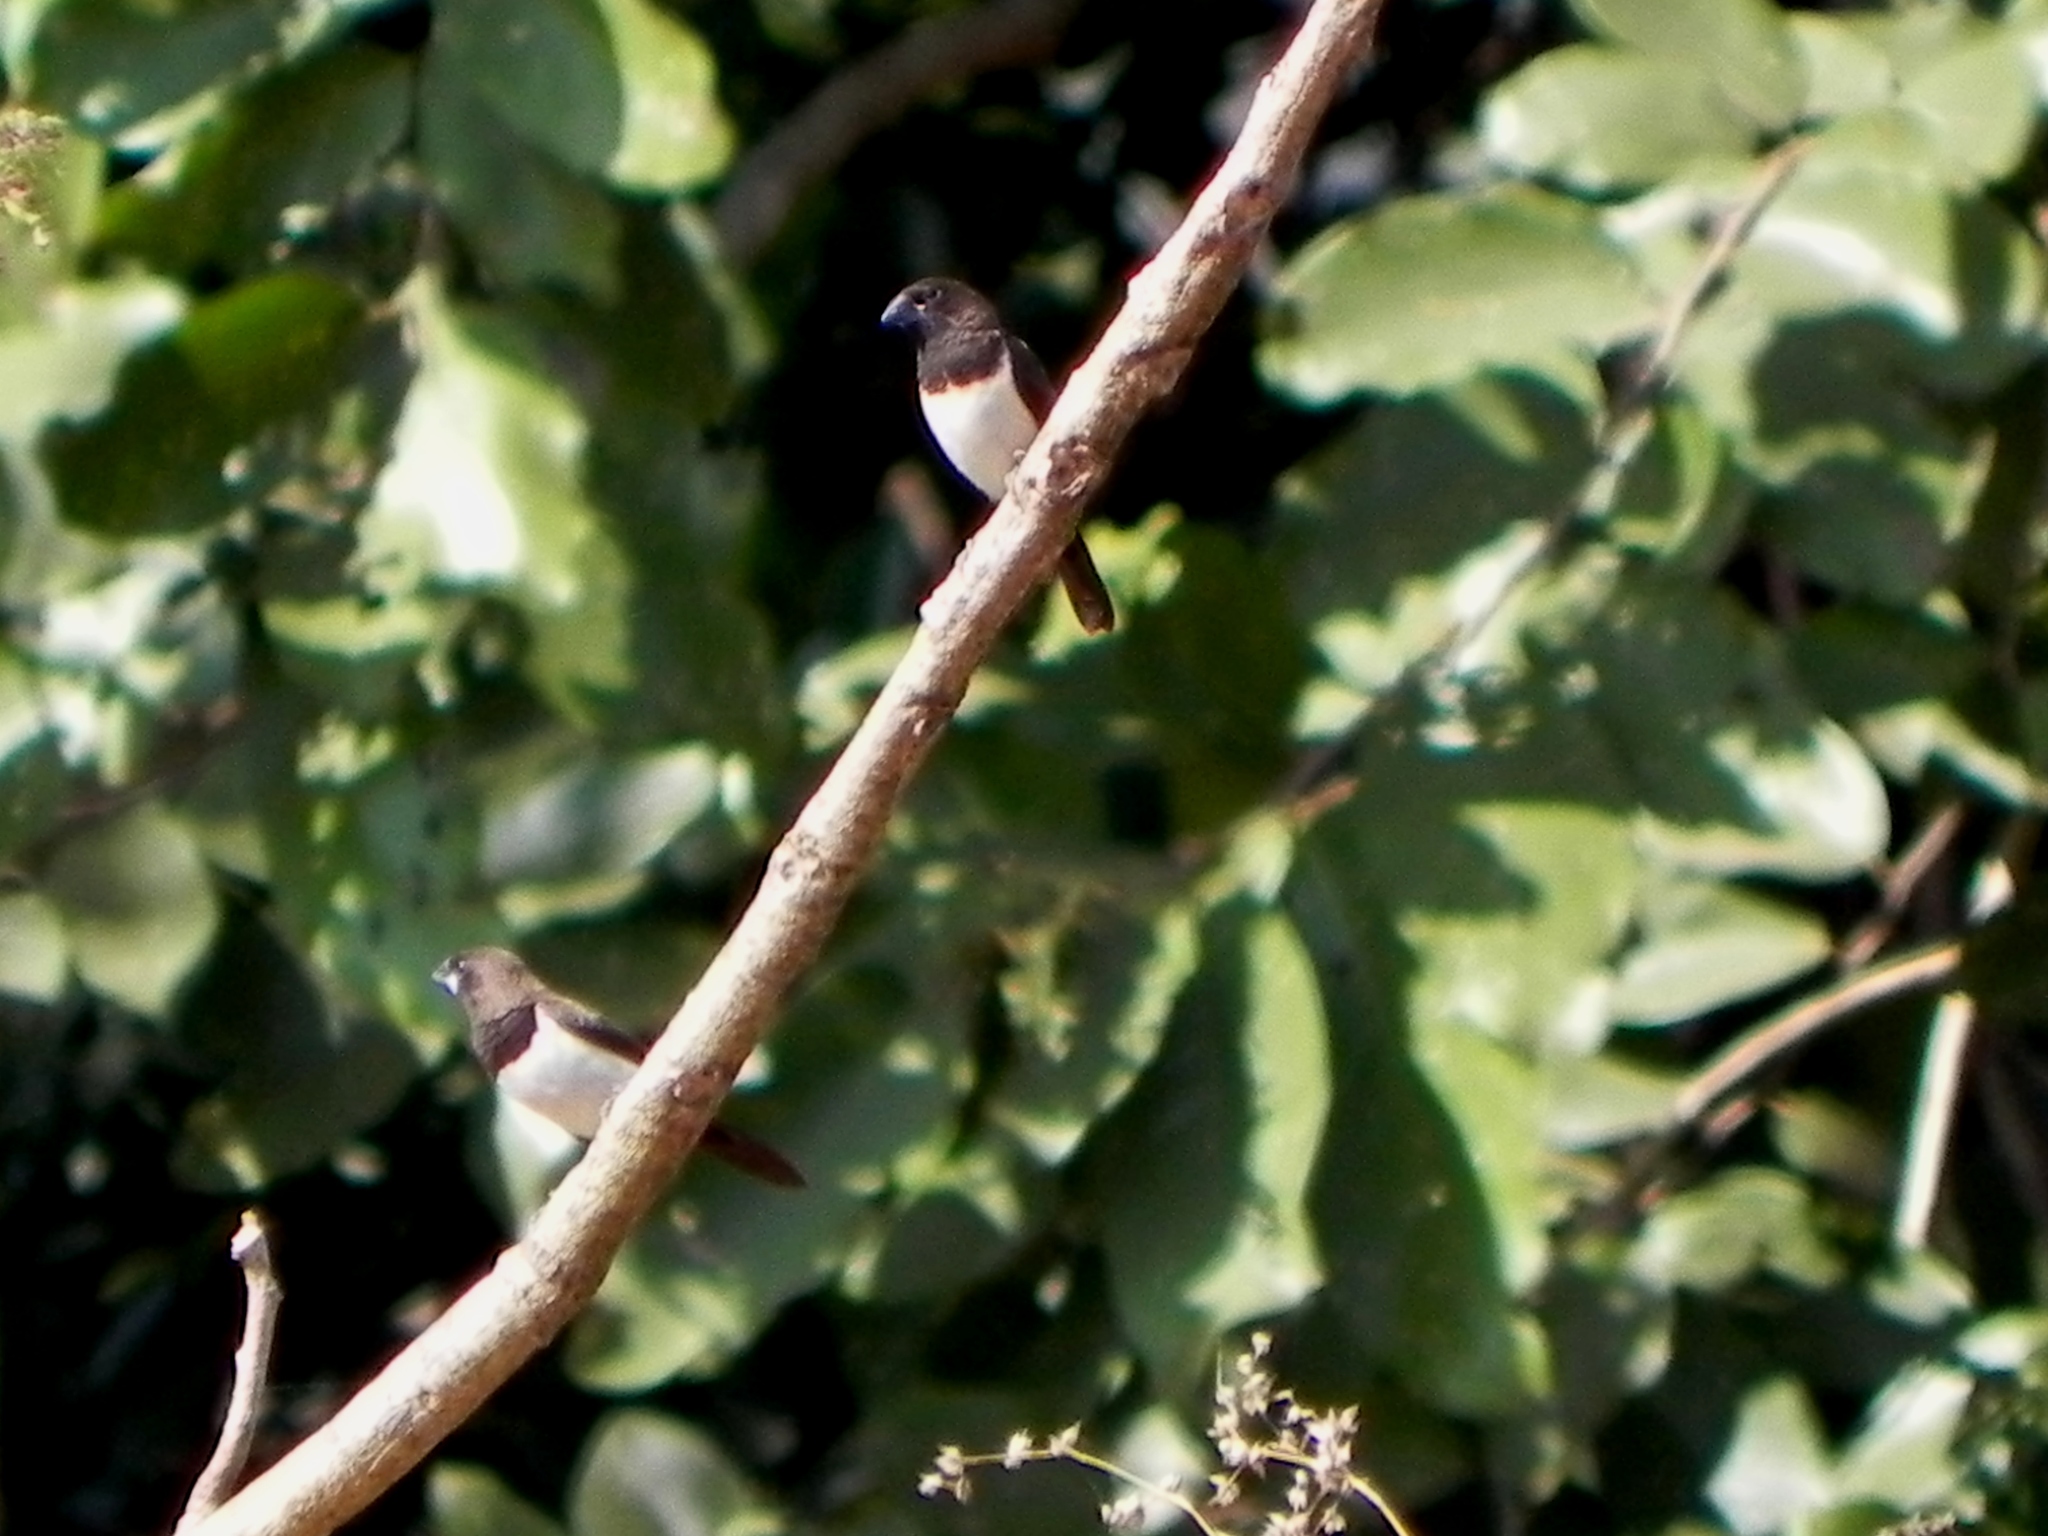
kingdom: Animalia
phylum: Chordata
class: Aves
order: Passeriformes
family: Estrildidae
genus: Lonchura
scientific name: Lonchura striata
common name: White-rumped munia
